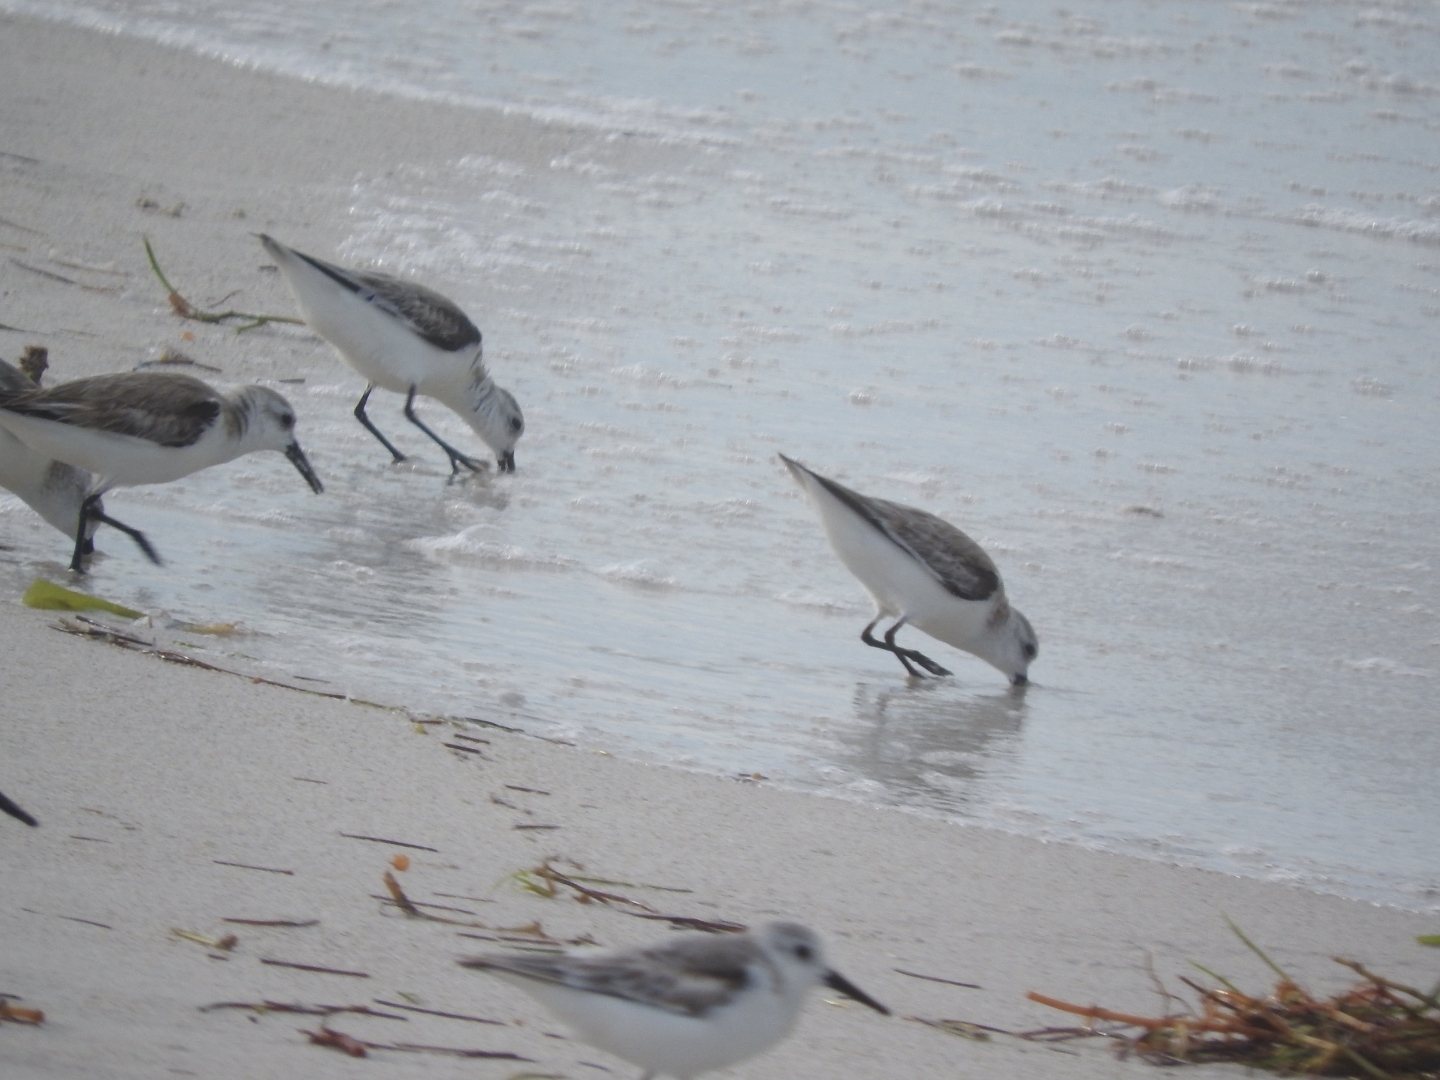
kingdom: Animalia
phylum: Chordata
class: Aves
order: Charadriiformes
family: Scolopacidae
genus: Calidris
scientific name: Calidris alba
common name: Sanderling
